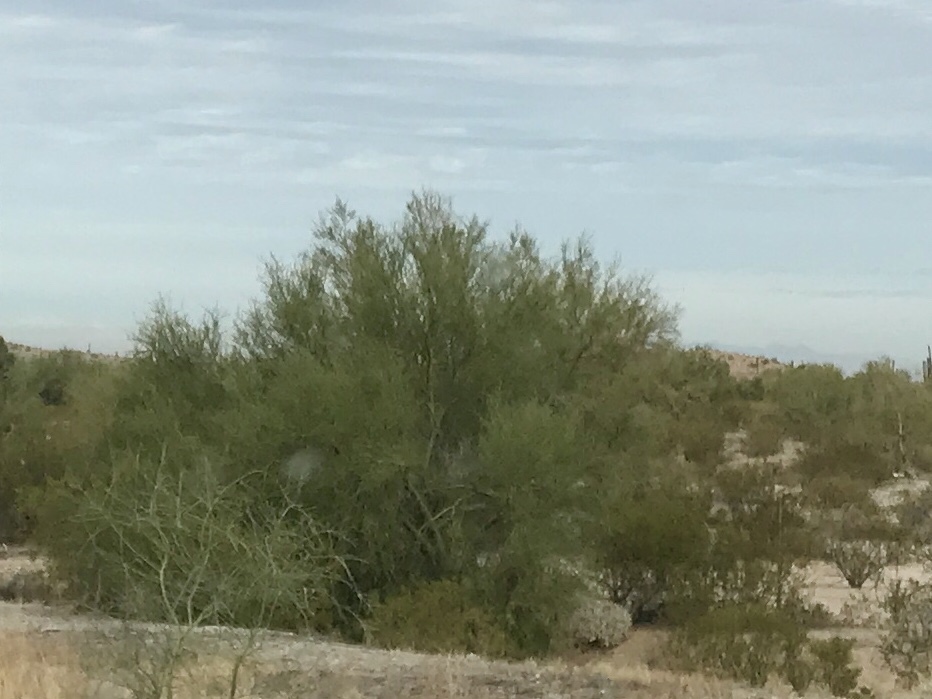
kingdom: Plantae
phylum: Tracheophyta
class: Magnoliopsida
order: Fabales
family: Fabaceae
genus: Parkinsonia
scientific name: Parkinsonia florida
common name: Blue paloverde
